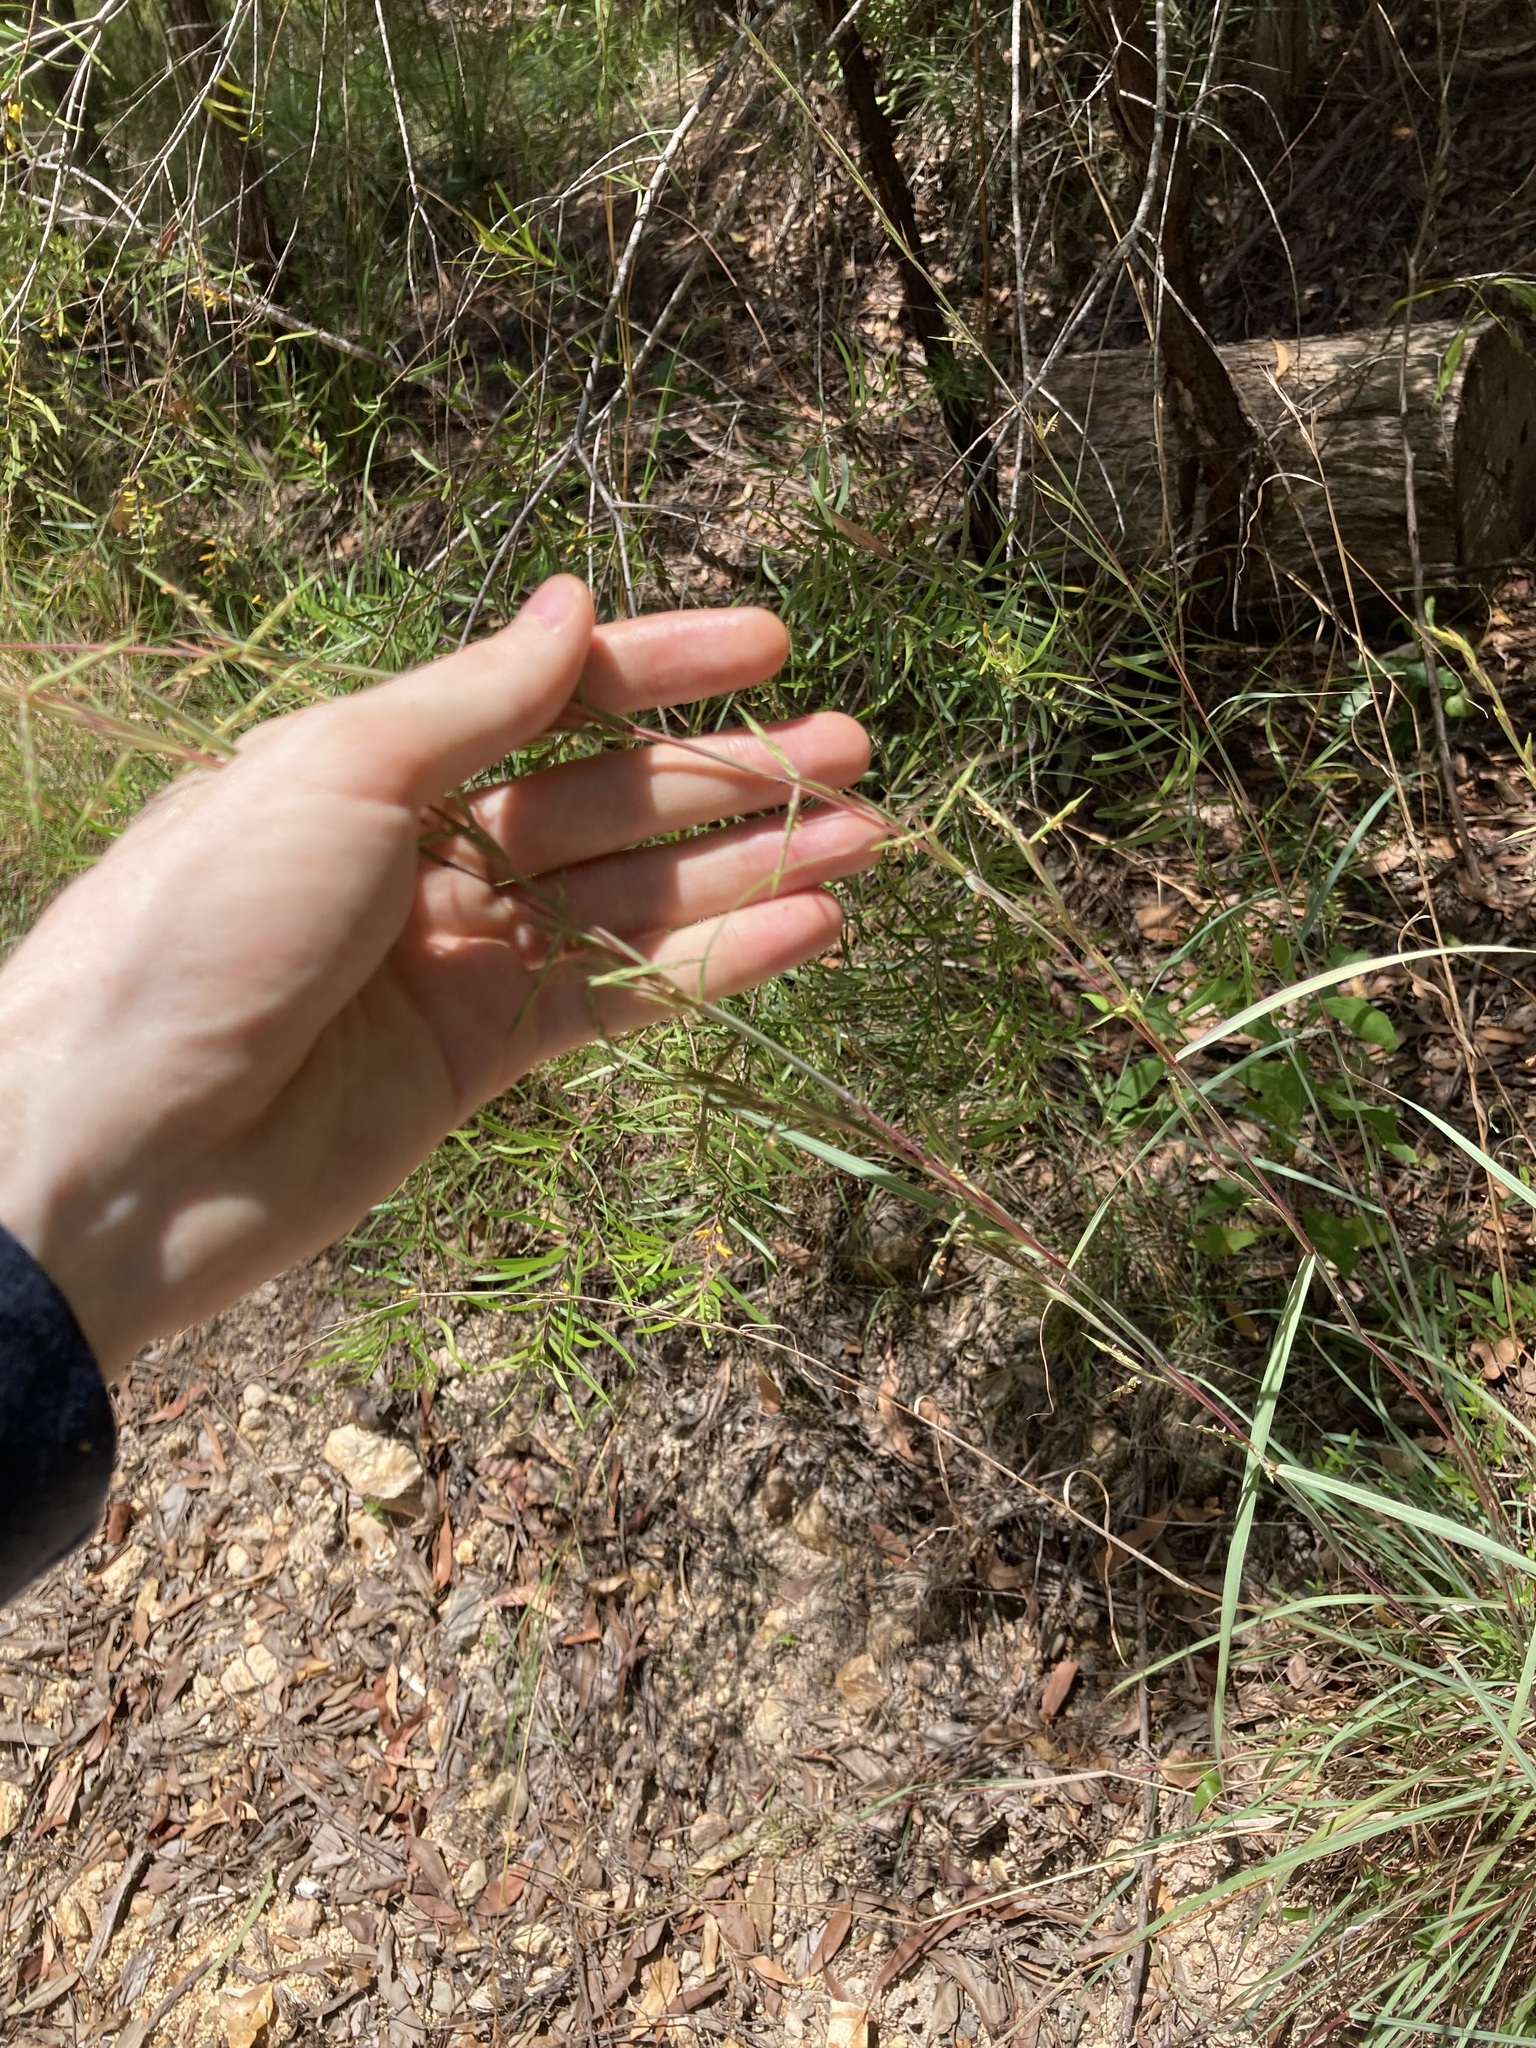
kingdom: Plantae
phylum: Tracheophyta
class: Liliopsida
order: Poales
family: Poaceae
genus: Cymbopogon
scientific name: Cymbopogon refractus
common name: Barbwire grass
